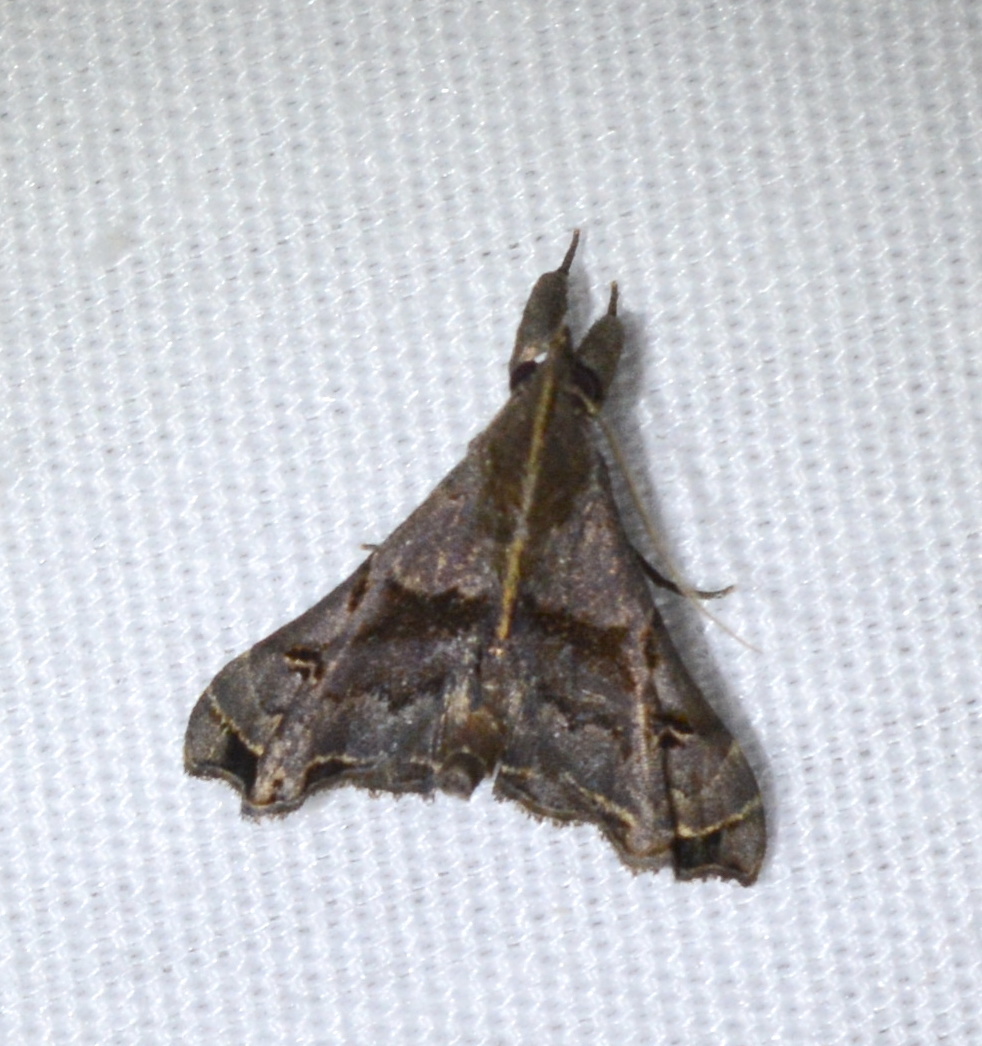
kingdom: Animalia
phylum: Arthropoda
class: Insecta
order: Lepidoptera
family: Erebidae
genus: Palthis
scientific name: Palthis asopialis
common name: Faint-spotted palthis moth
